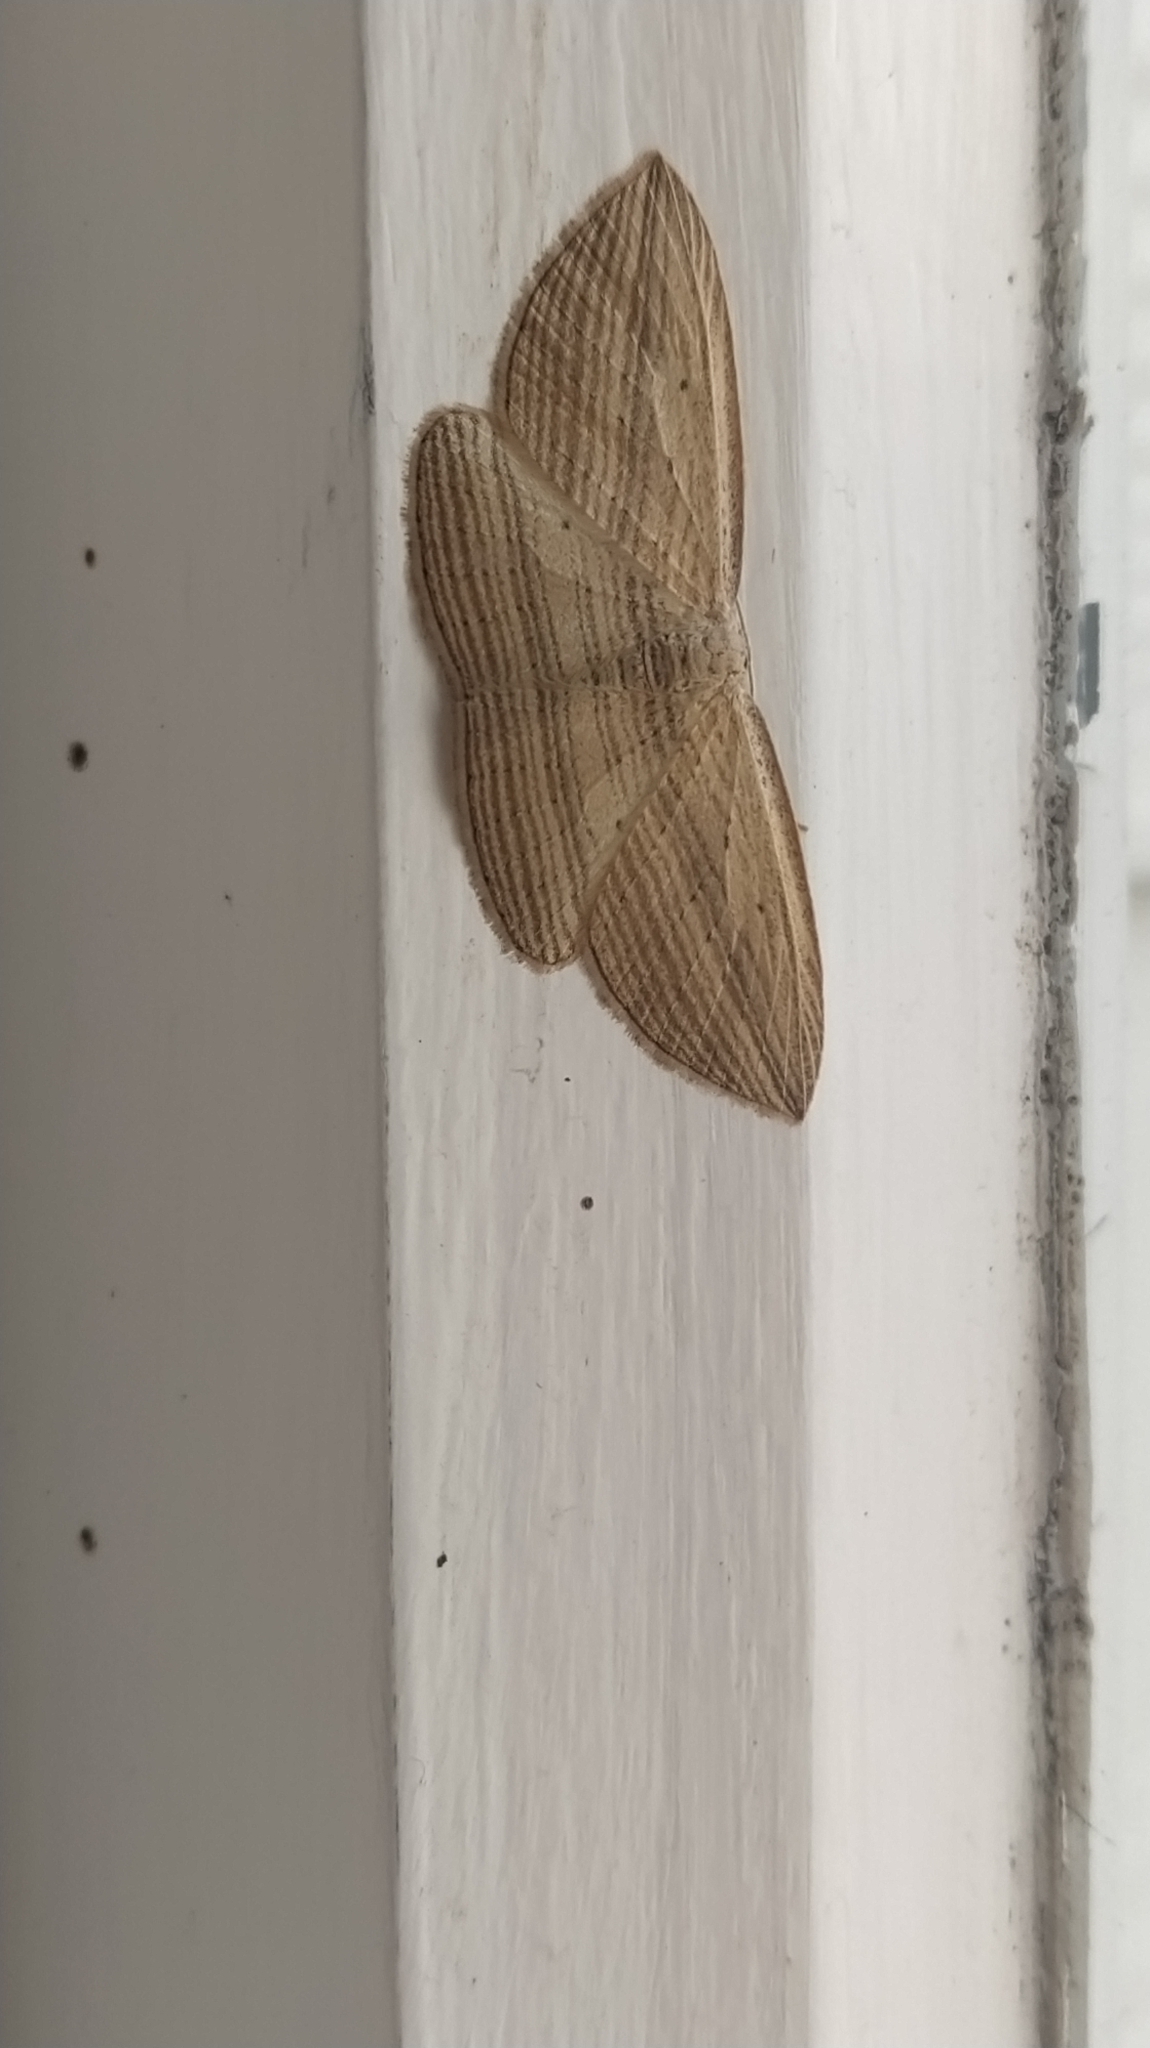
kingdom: Animalia
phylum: Arthropoda
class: Insecta
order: Lepidoptera
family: Geometridae
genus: Epiphryne
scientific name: Epiphryne verriculata
